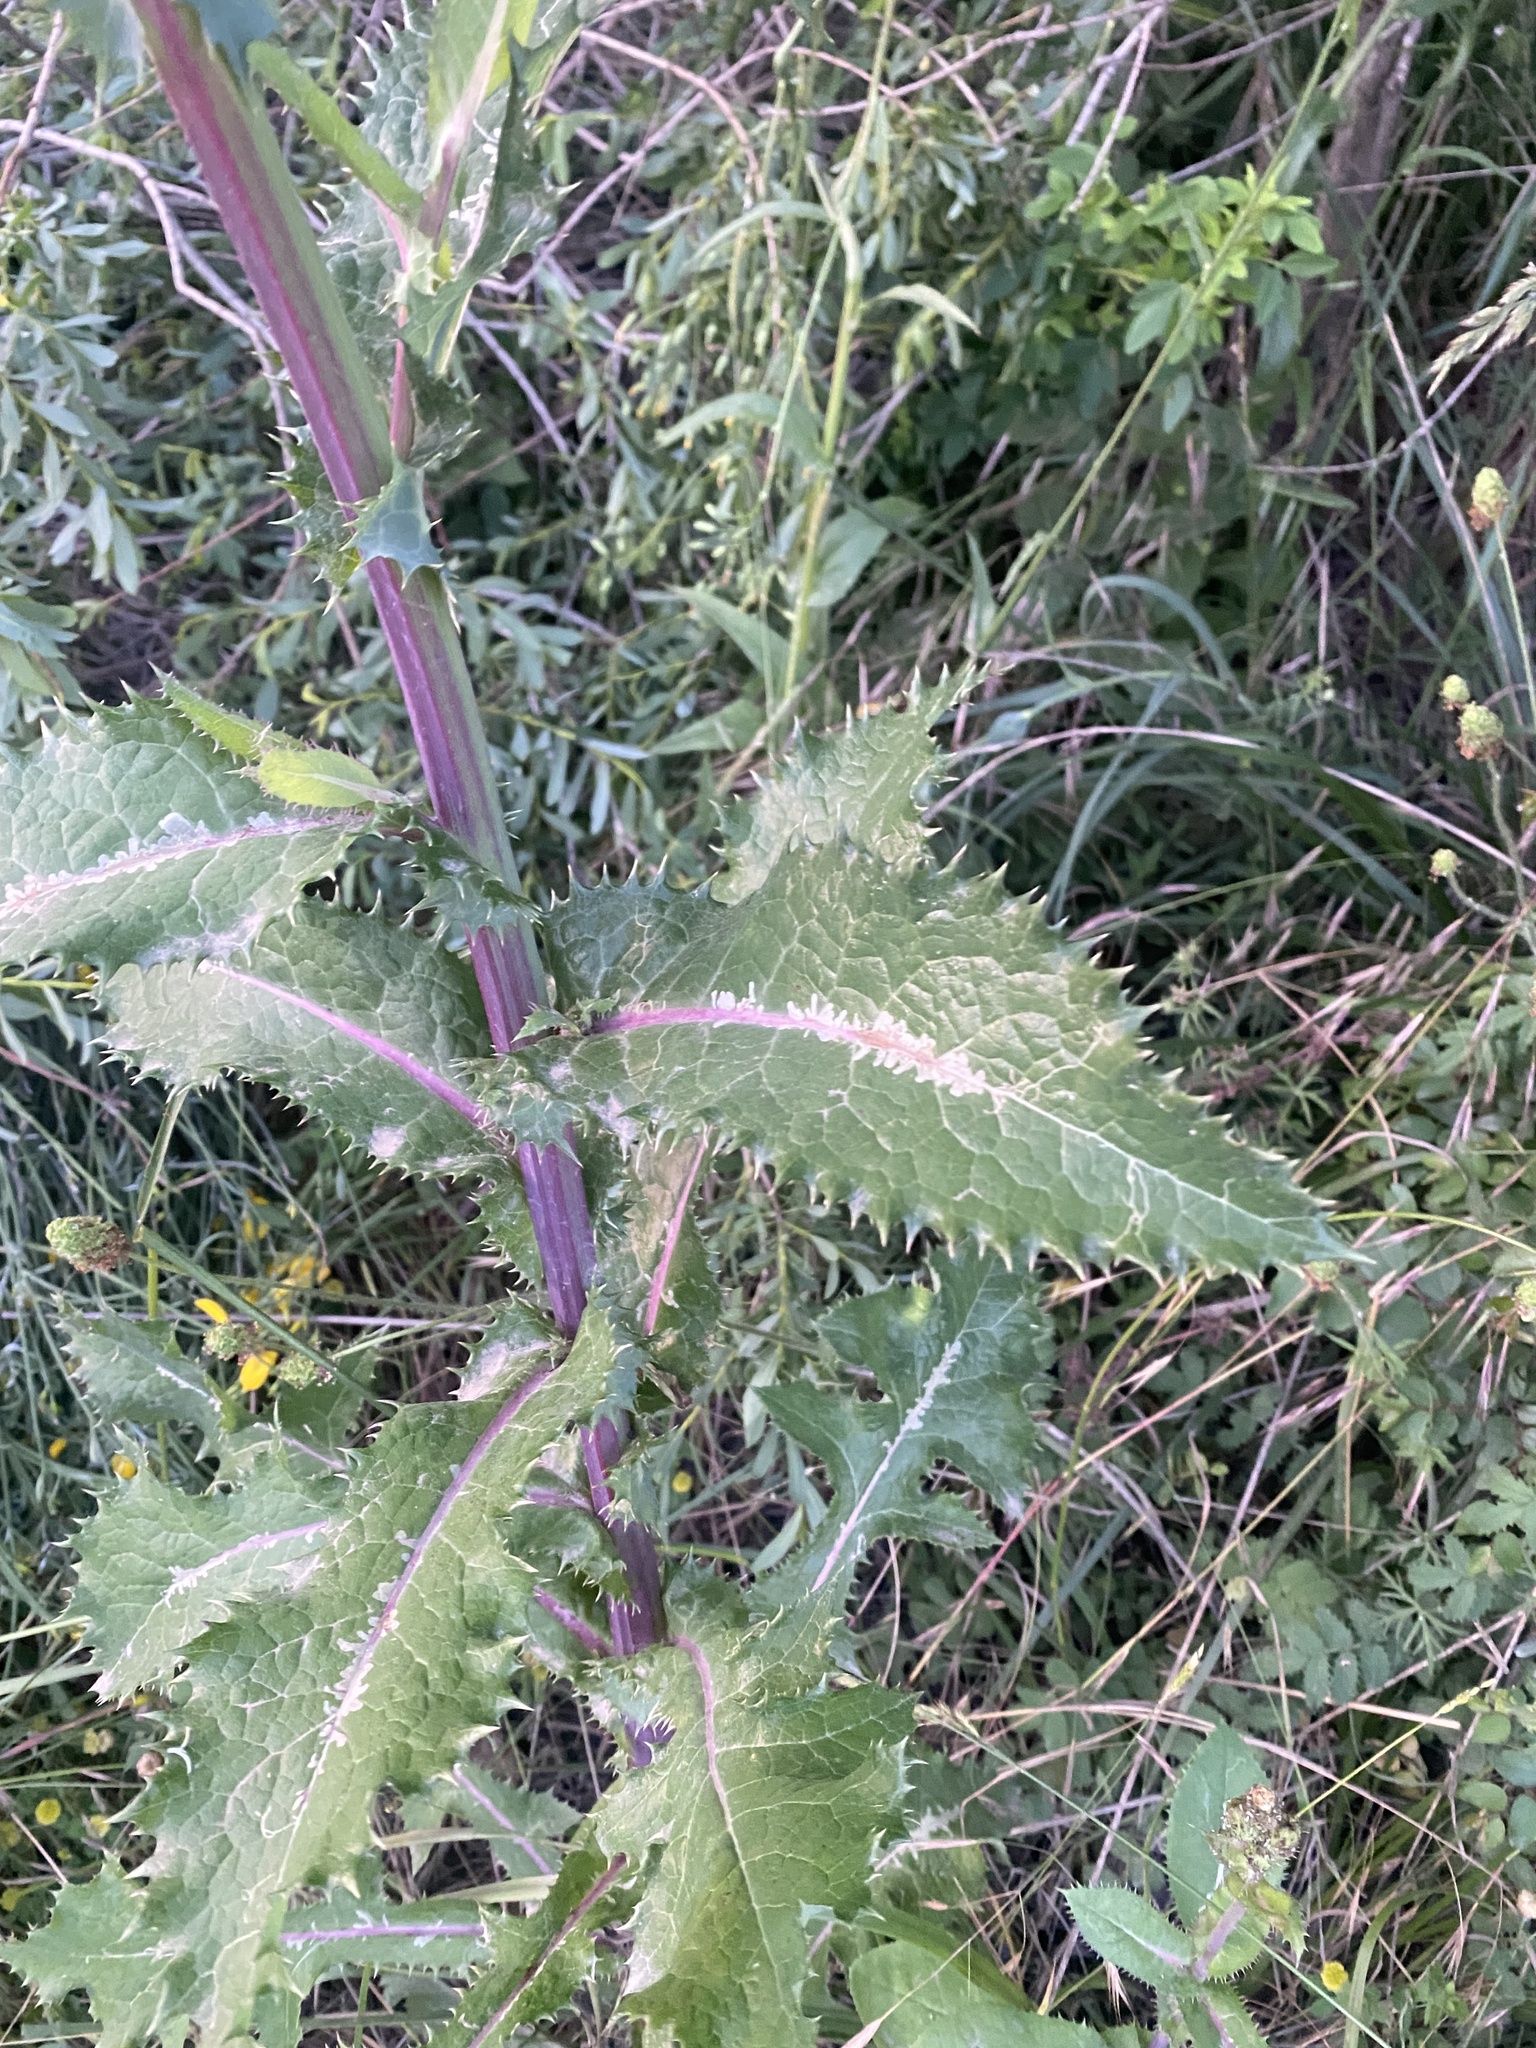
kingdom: Plantae
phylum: Tracheophyta
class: Magnoliopsida
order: Asterales
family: Asteraceae
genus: Sonchus
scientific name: Sonchus asper
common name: Prickly sow-thistle
